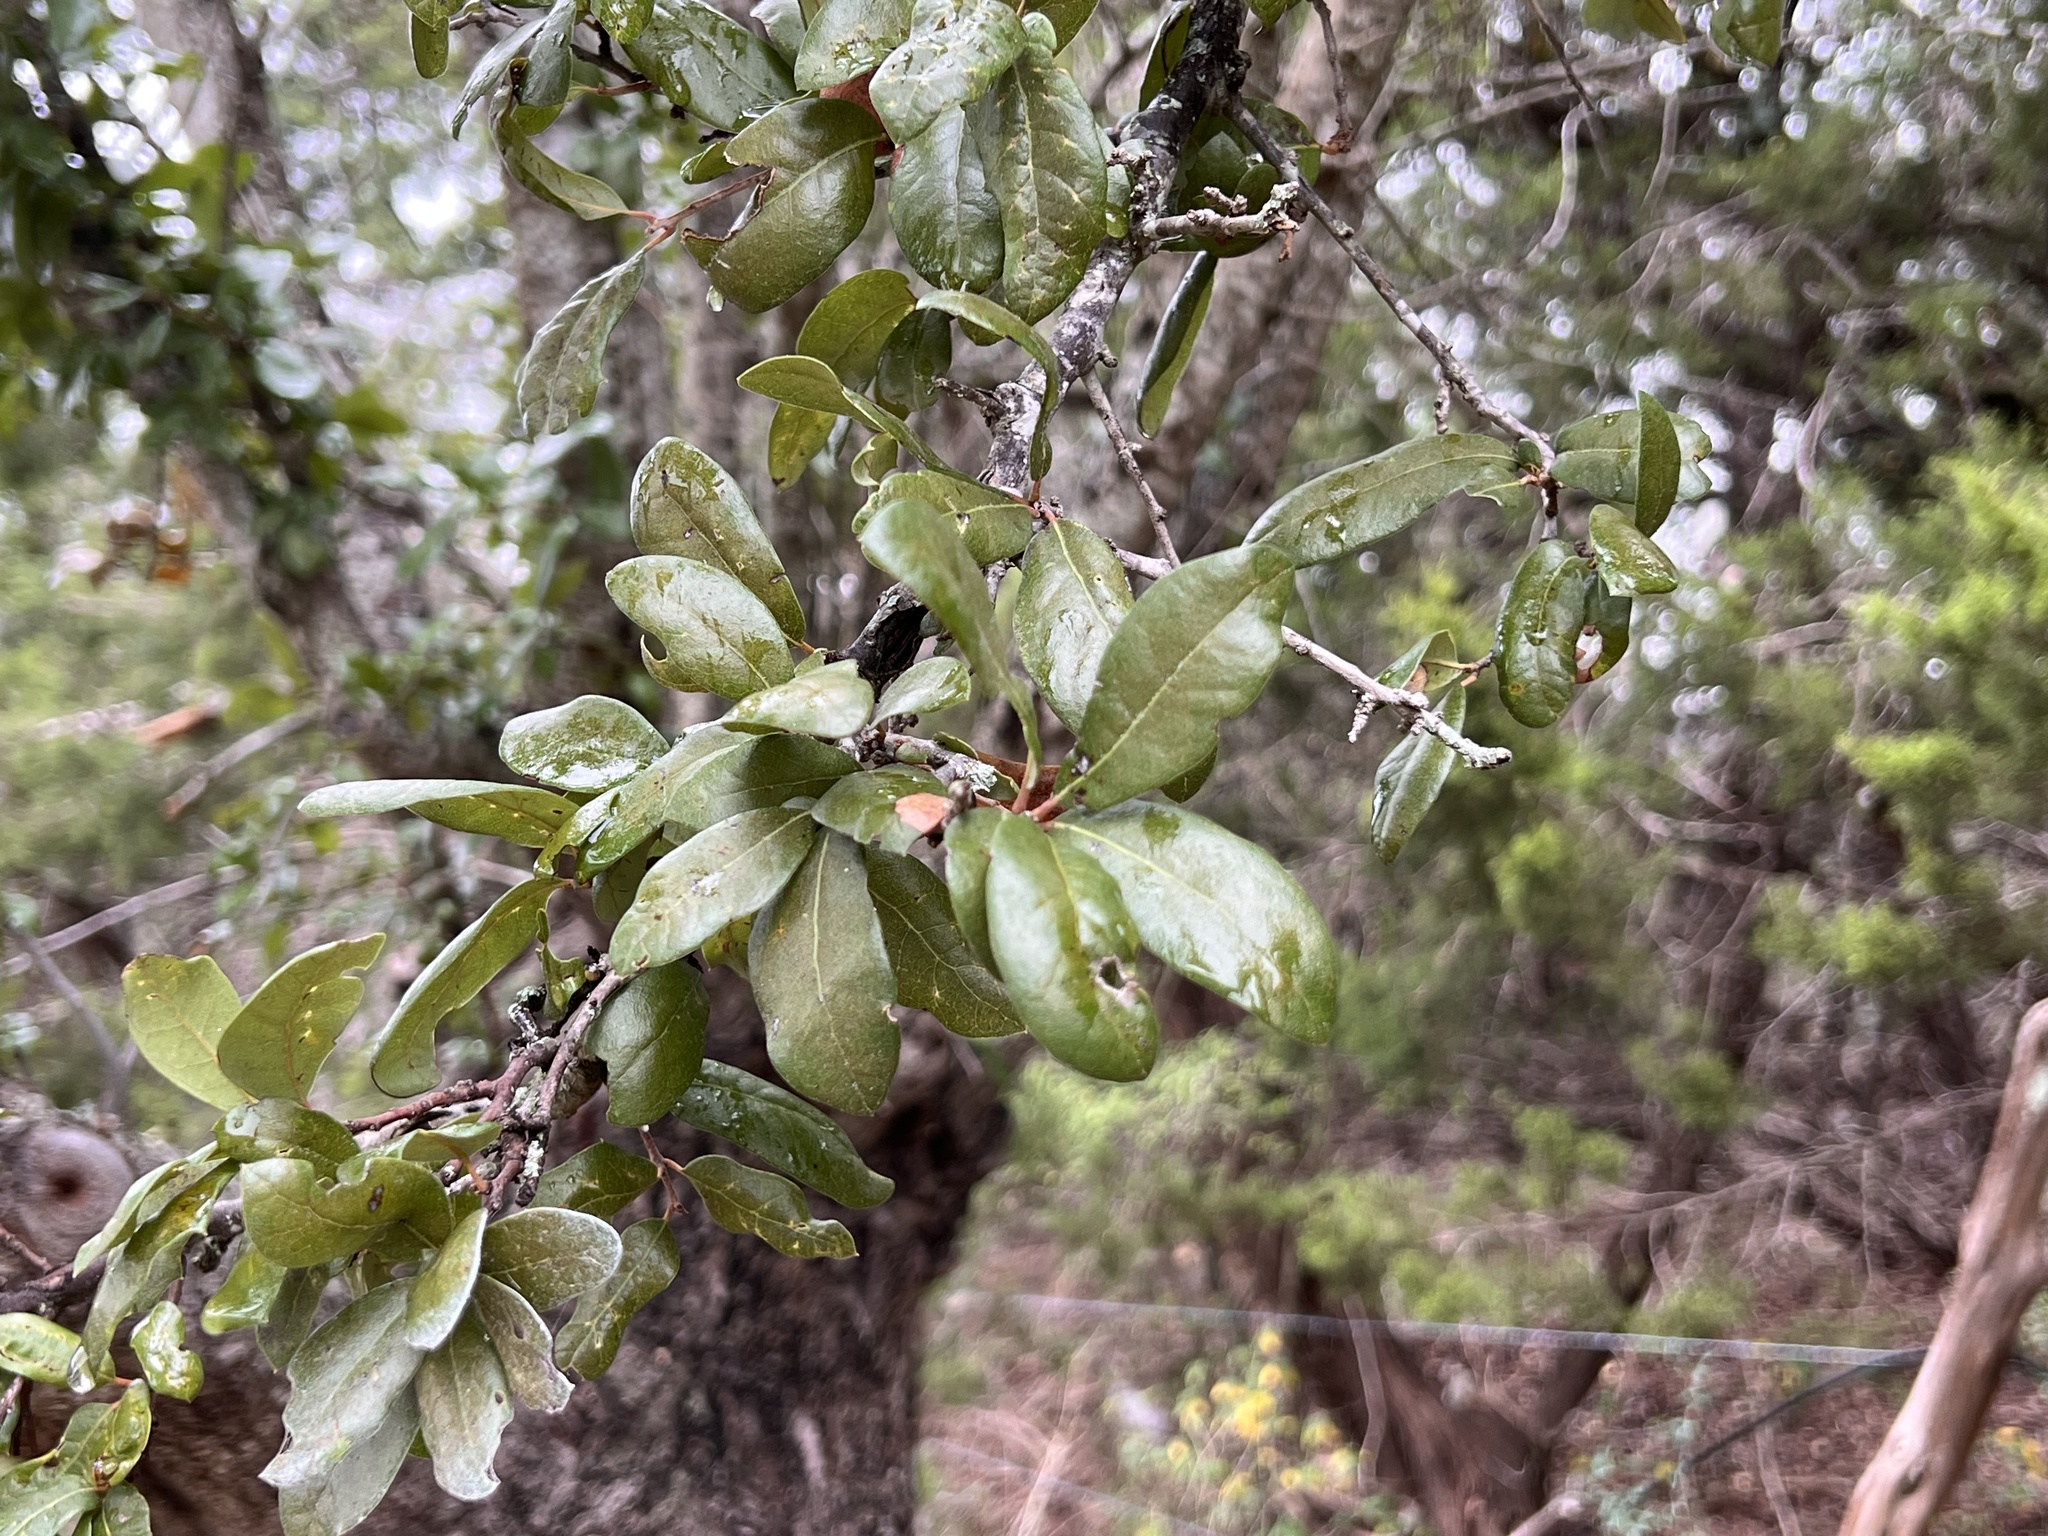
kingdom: Plantae
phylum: Tracheophyta
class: Magnoliopsida
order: Fagales
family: Fagaceae
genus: Quercus
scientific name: Quercus fusiformis
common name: Texas live oak
